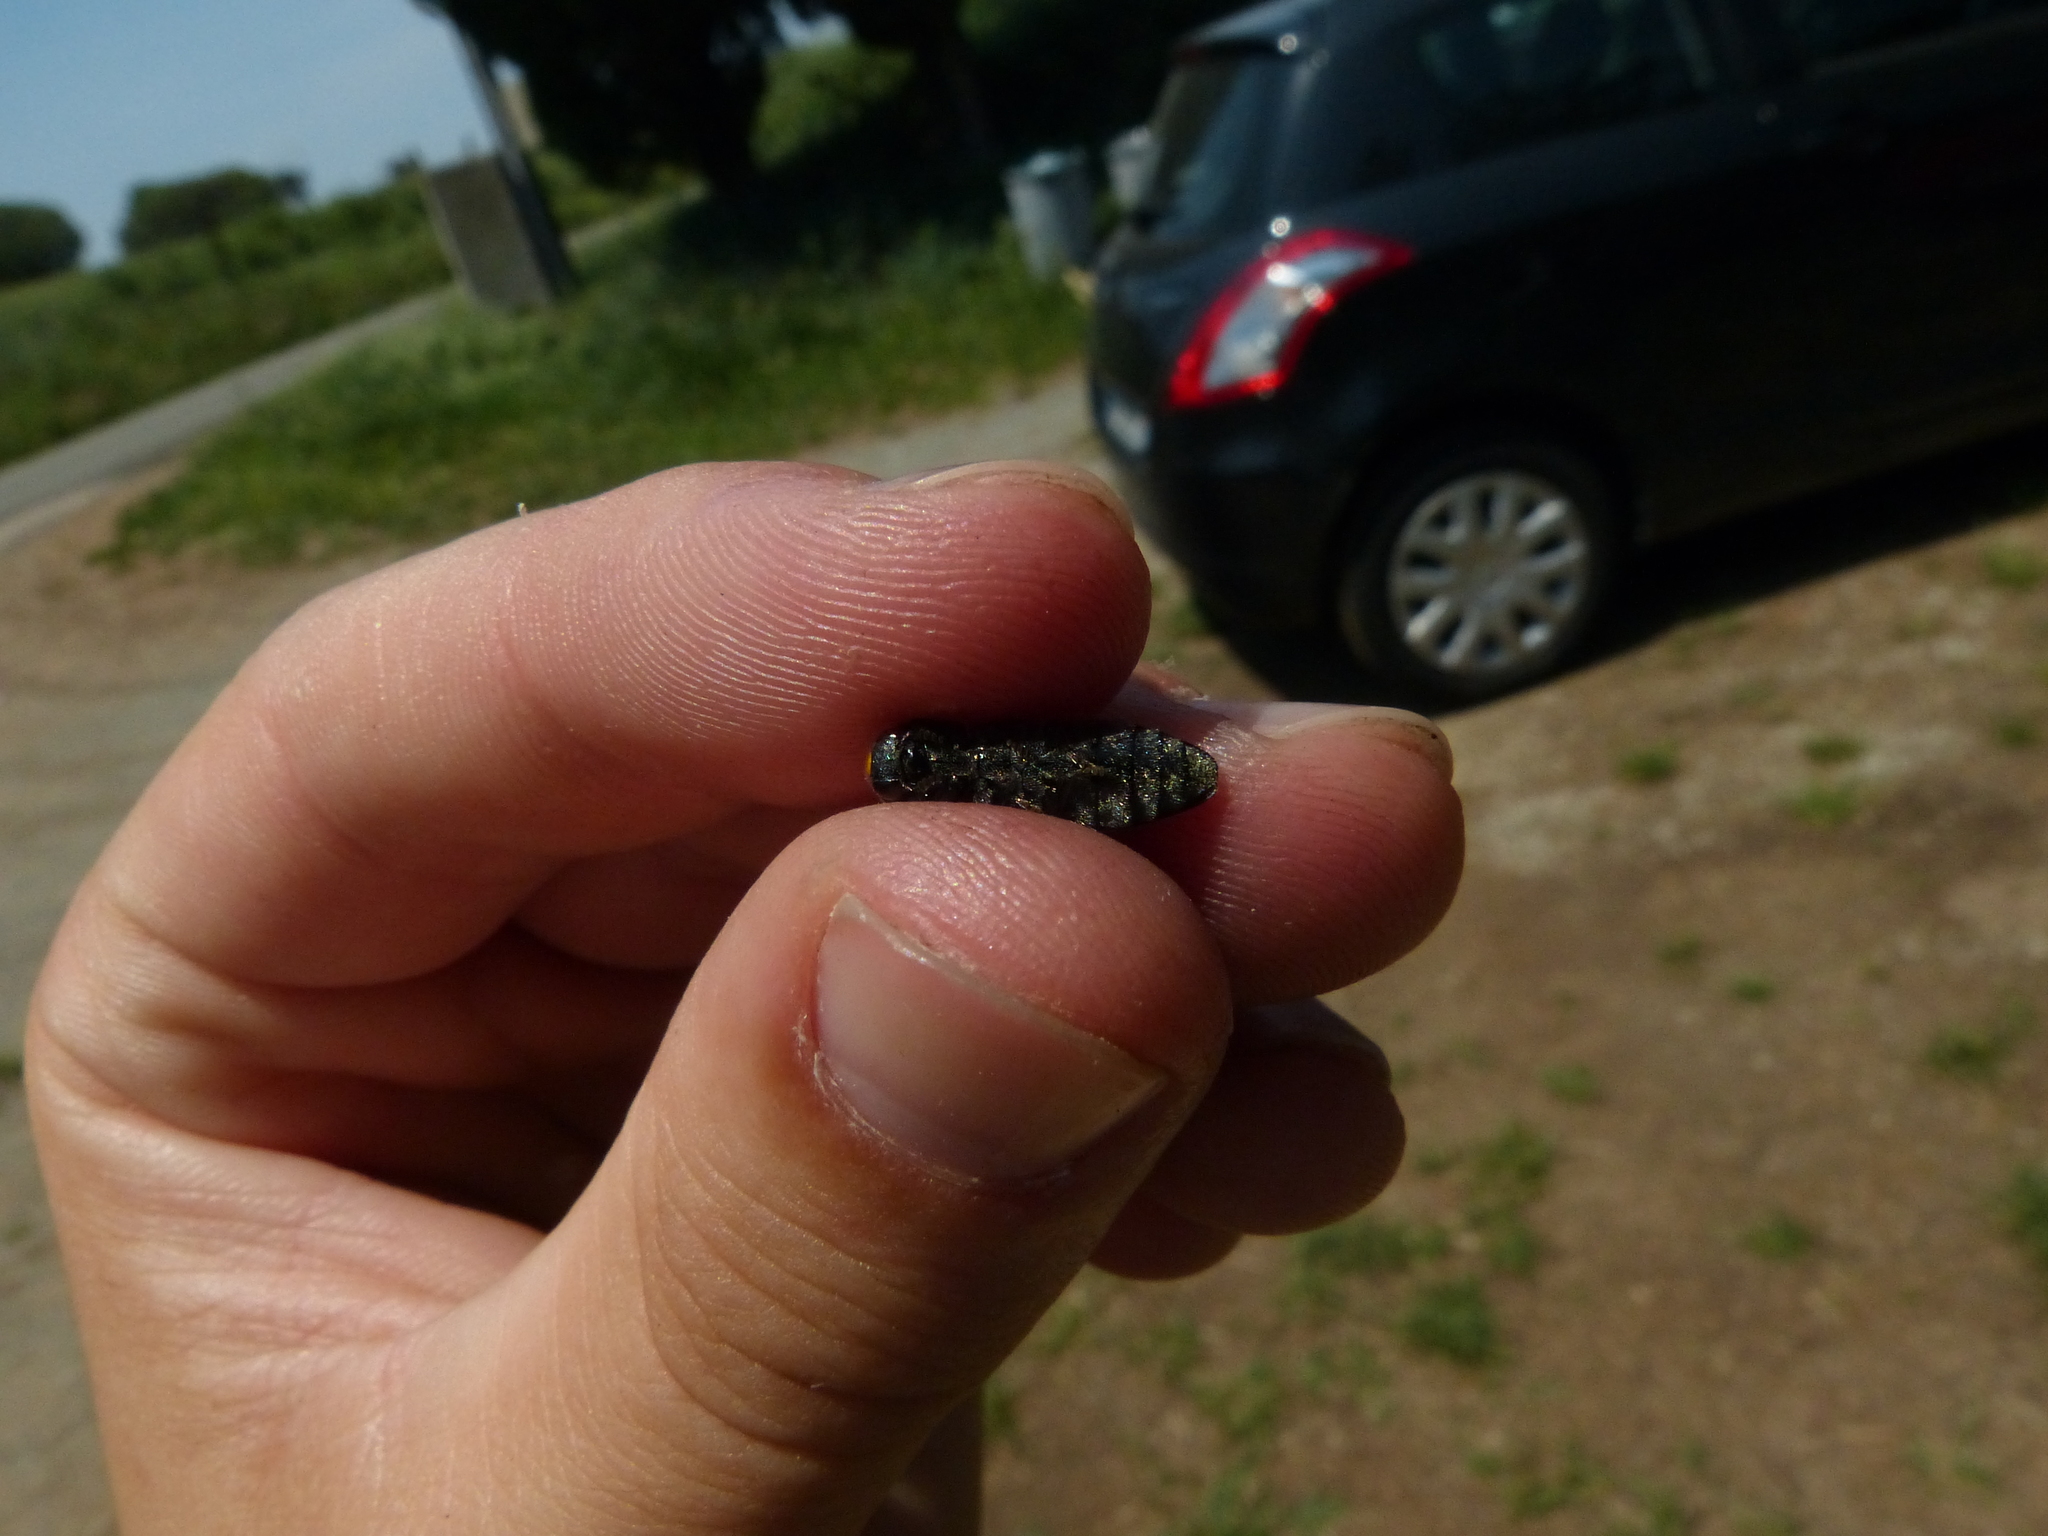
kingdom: Animalia
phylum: Arthropoda
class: Insecta
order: Coleoptera
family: Buprestidae
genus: Ptosima
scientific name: Ptosima undecimmaculata
